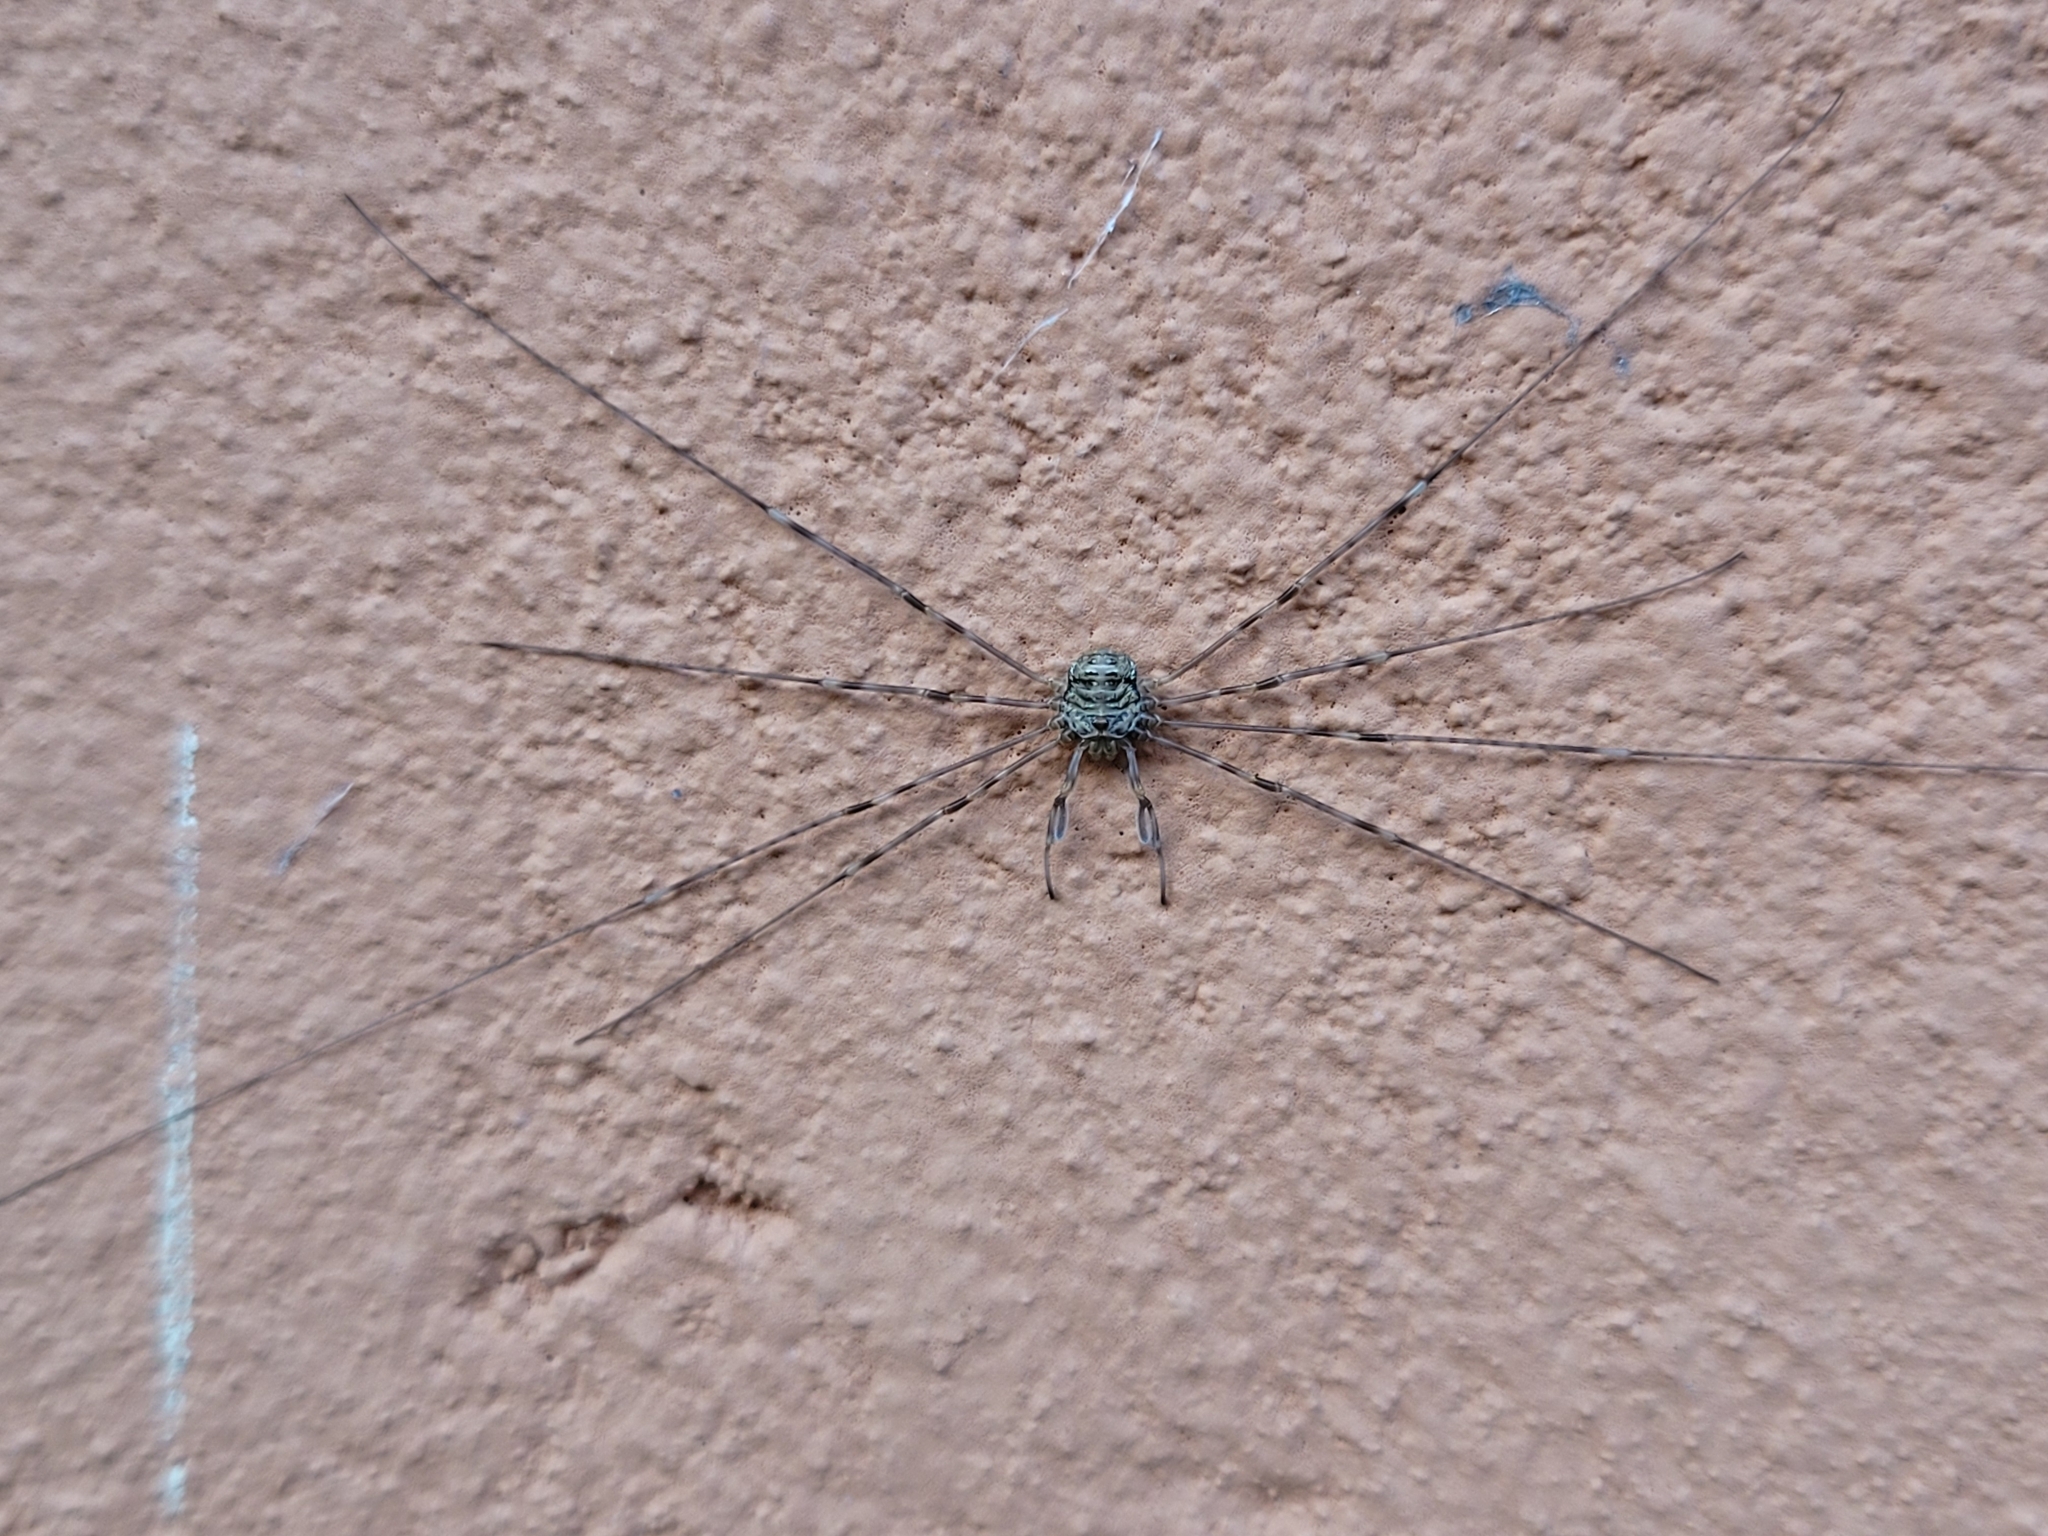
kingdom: Animalia
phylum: Arthropoda
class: Arachnida
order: Opiliones
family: Phalangiidae
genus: Dicranopalpus
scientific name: Dicranopalpus ramosus
